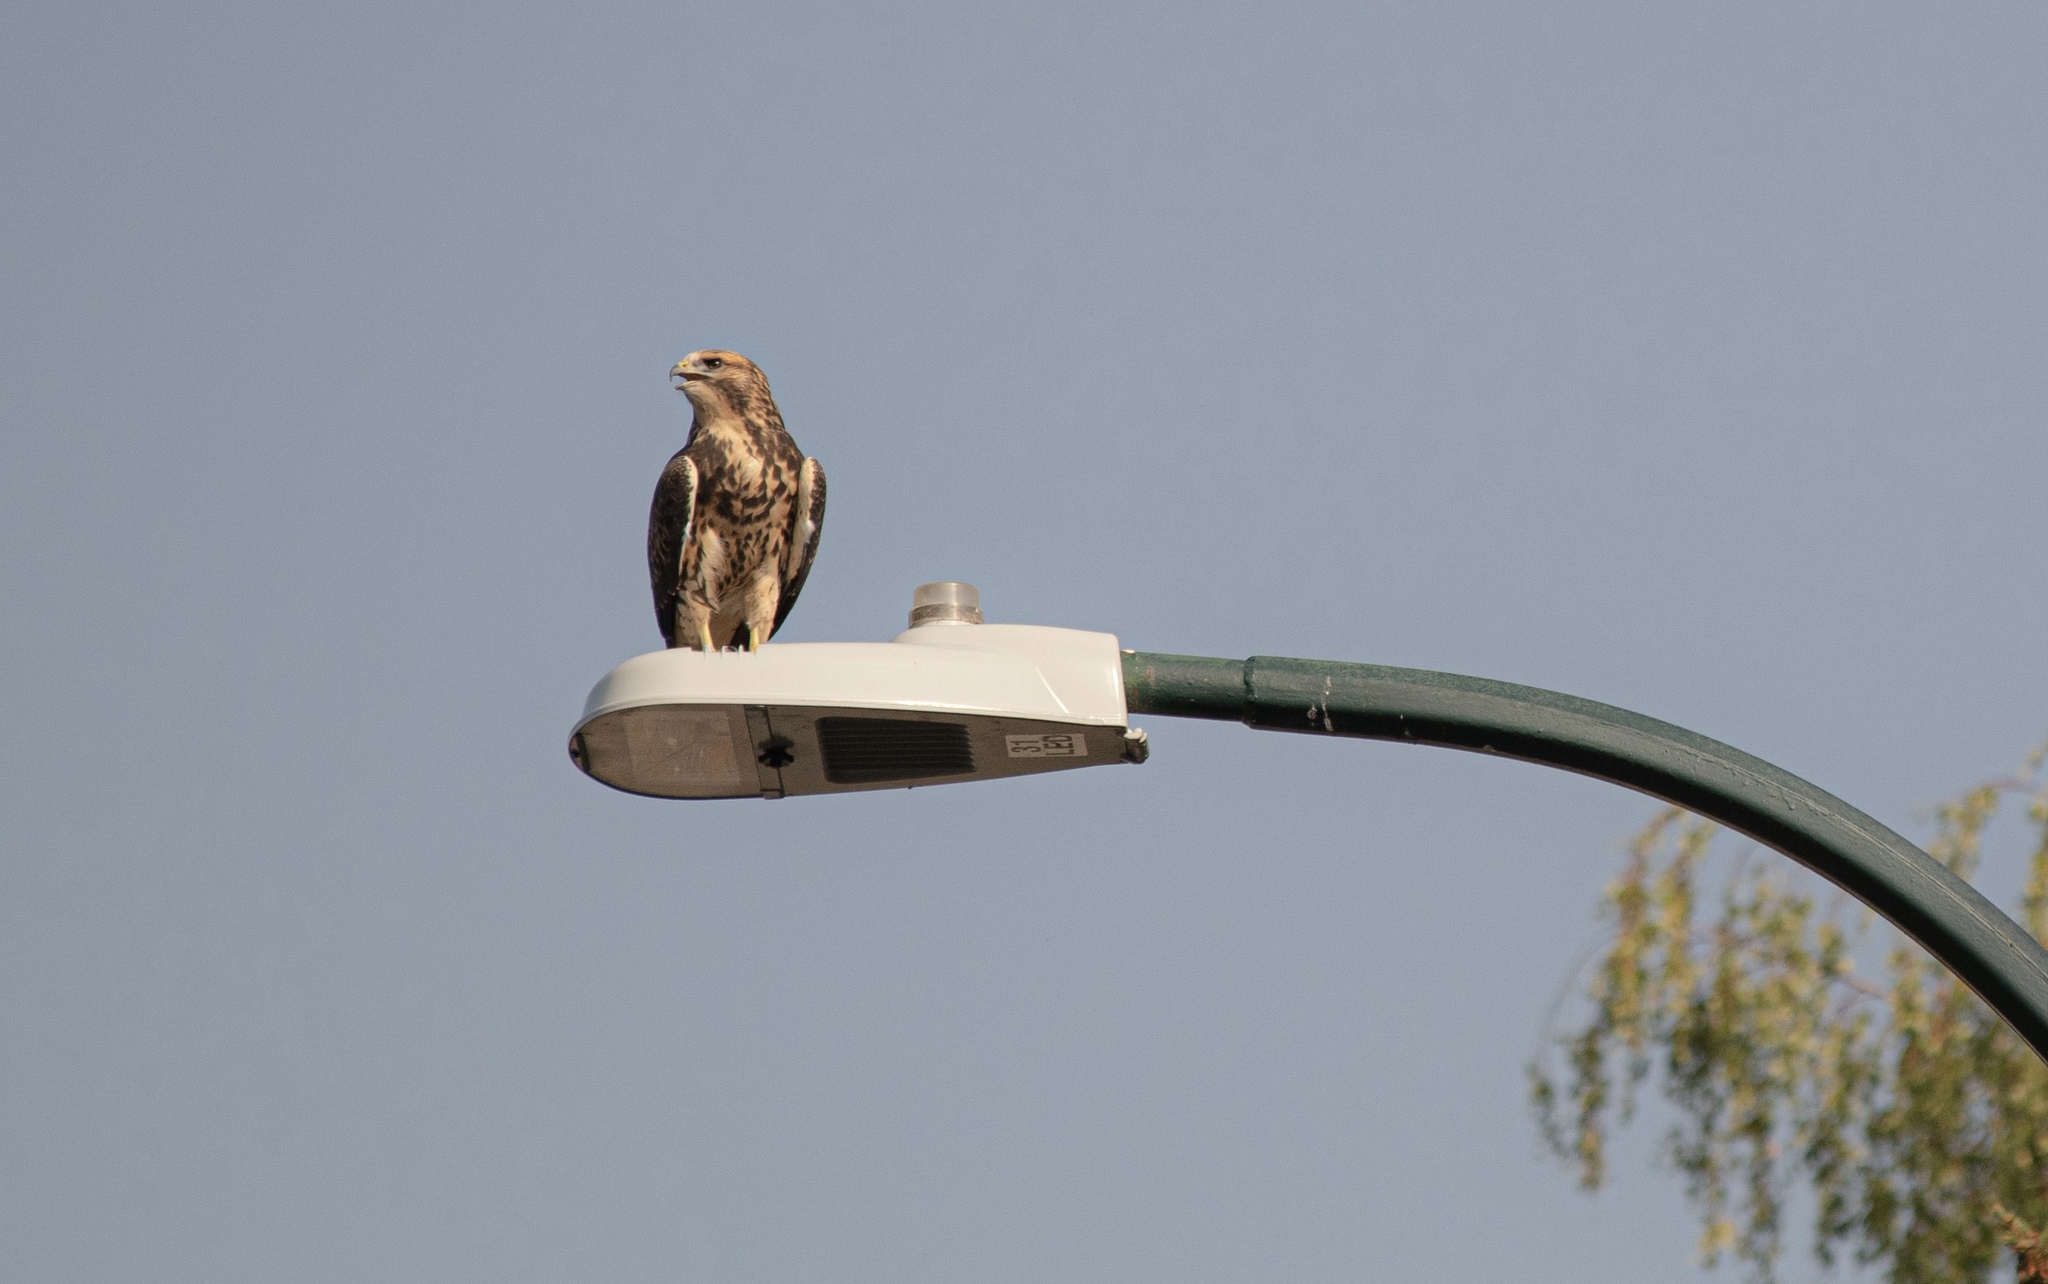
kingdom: Animalia
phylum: Chordata
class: Aves
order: Accipitriformes
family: Accipitridae
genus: Buteo
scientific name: Buteo swainsoni
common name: Swainson's hawk
